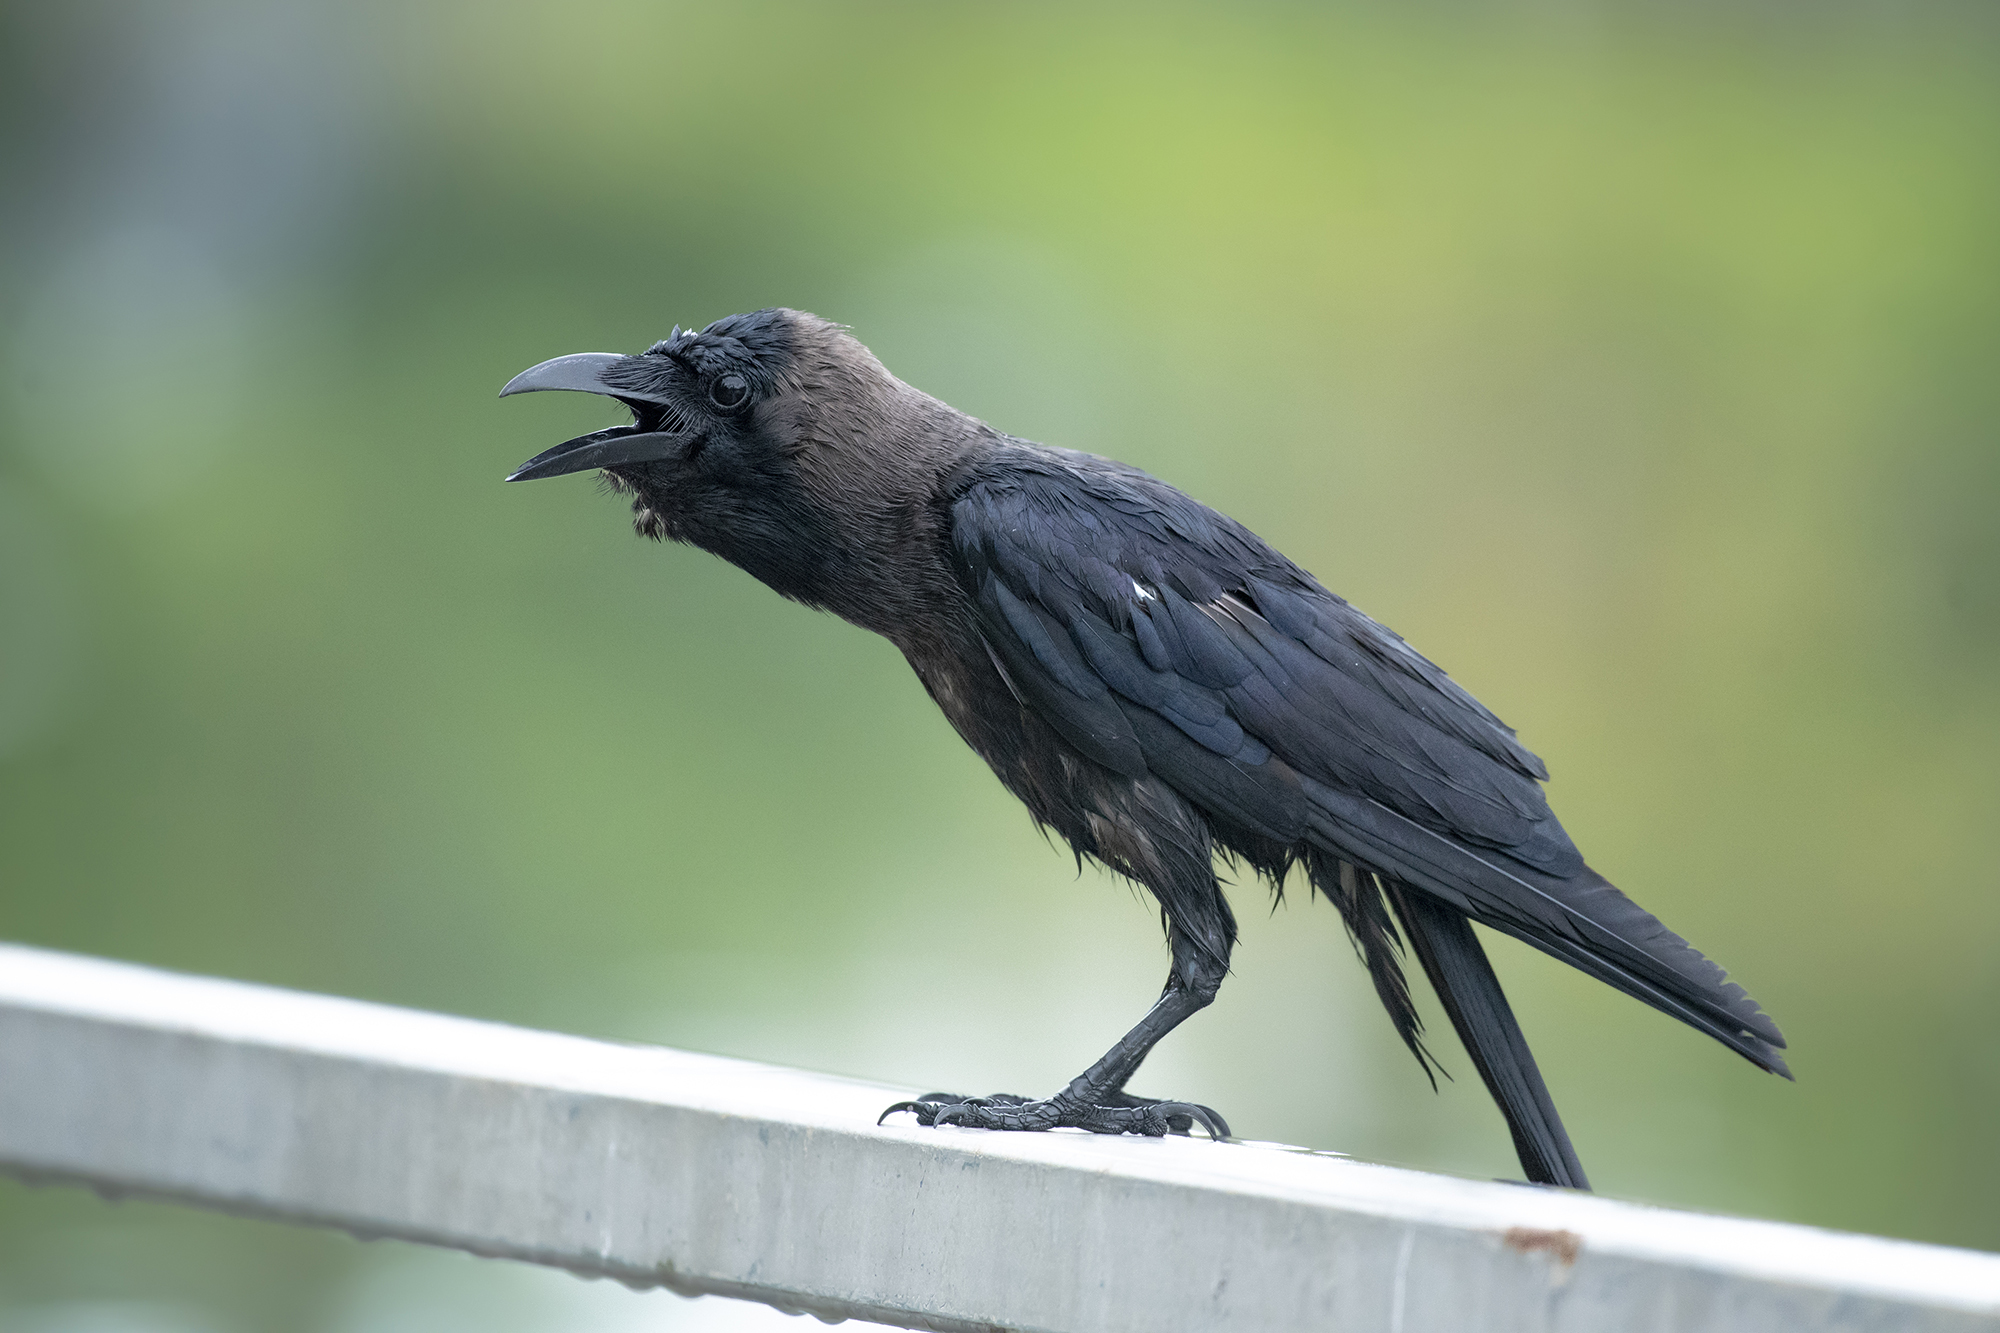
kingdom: Animalia
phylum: Chordata
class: Aves
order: Passeriformes
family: Corvidae
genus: Corvus
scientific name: Corvus splendens
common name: House crow
